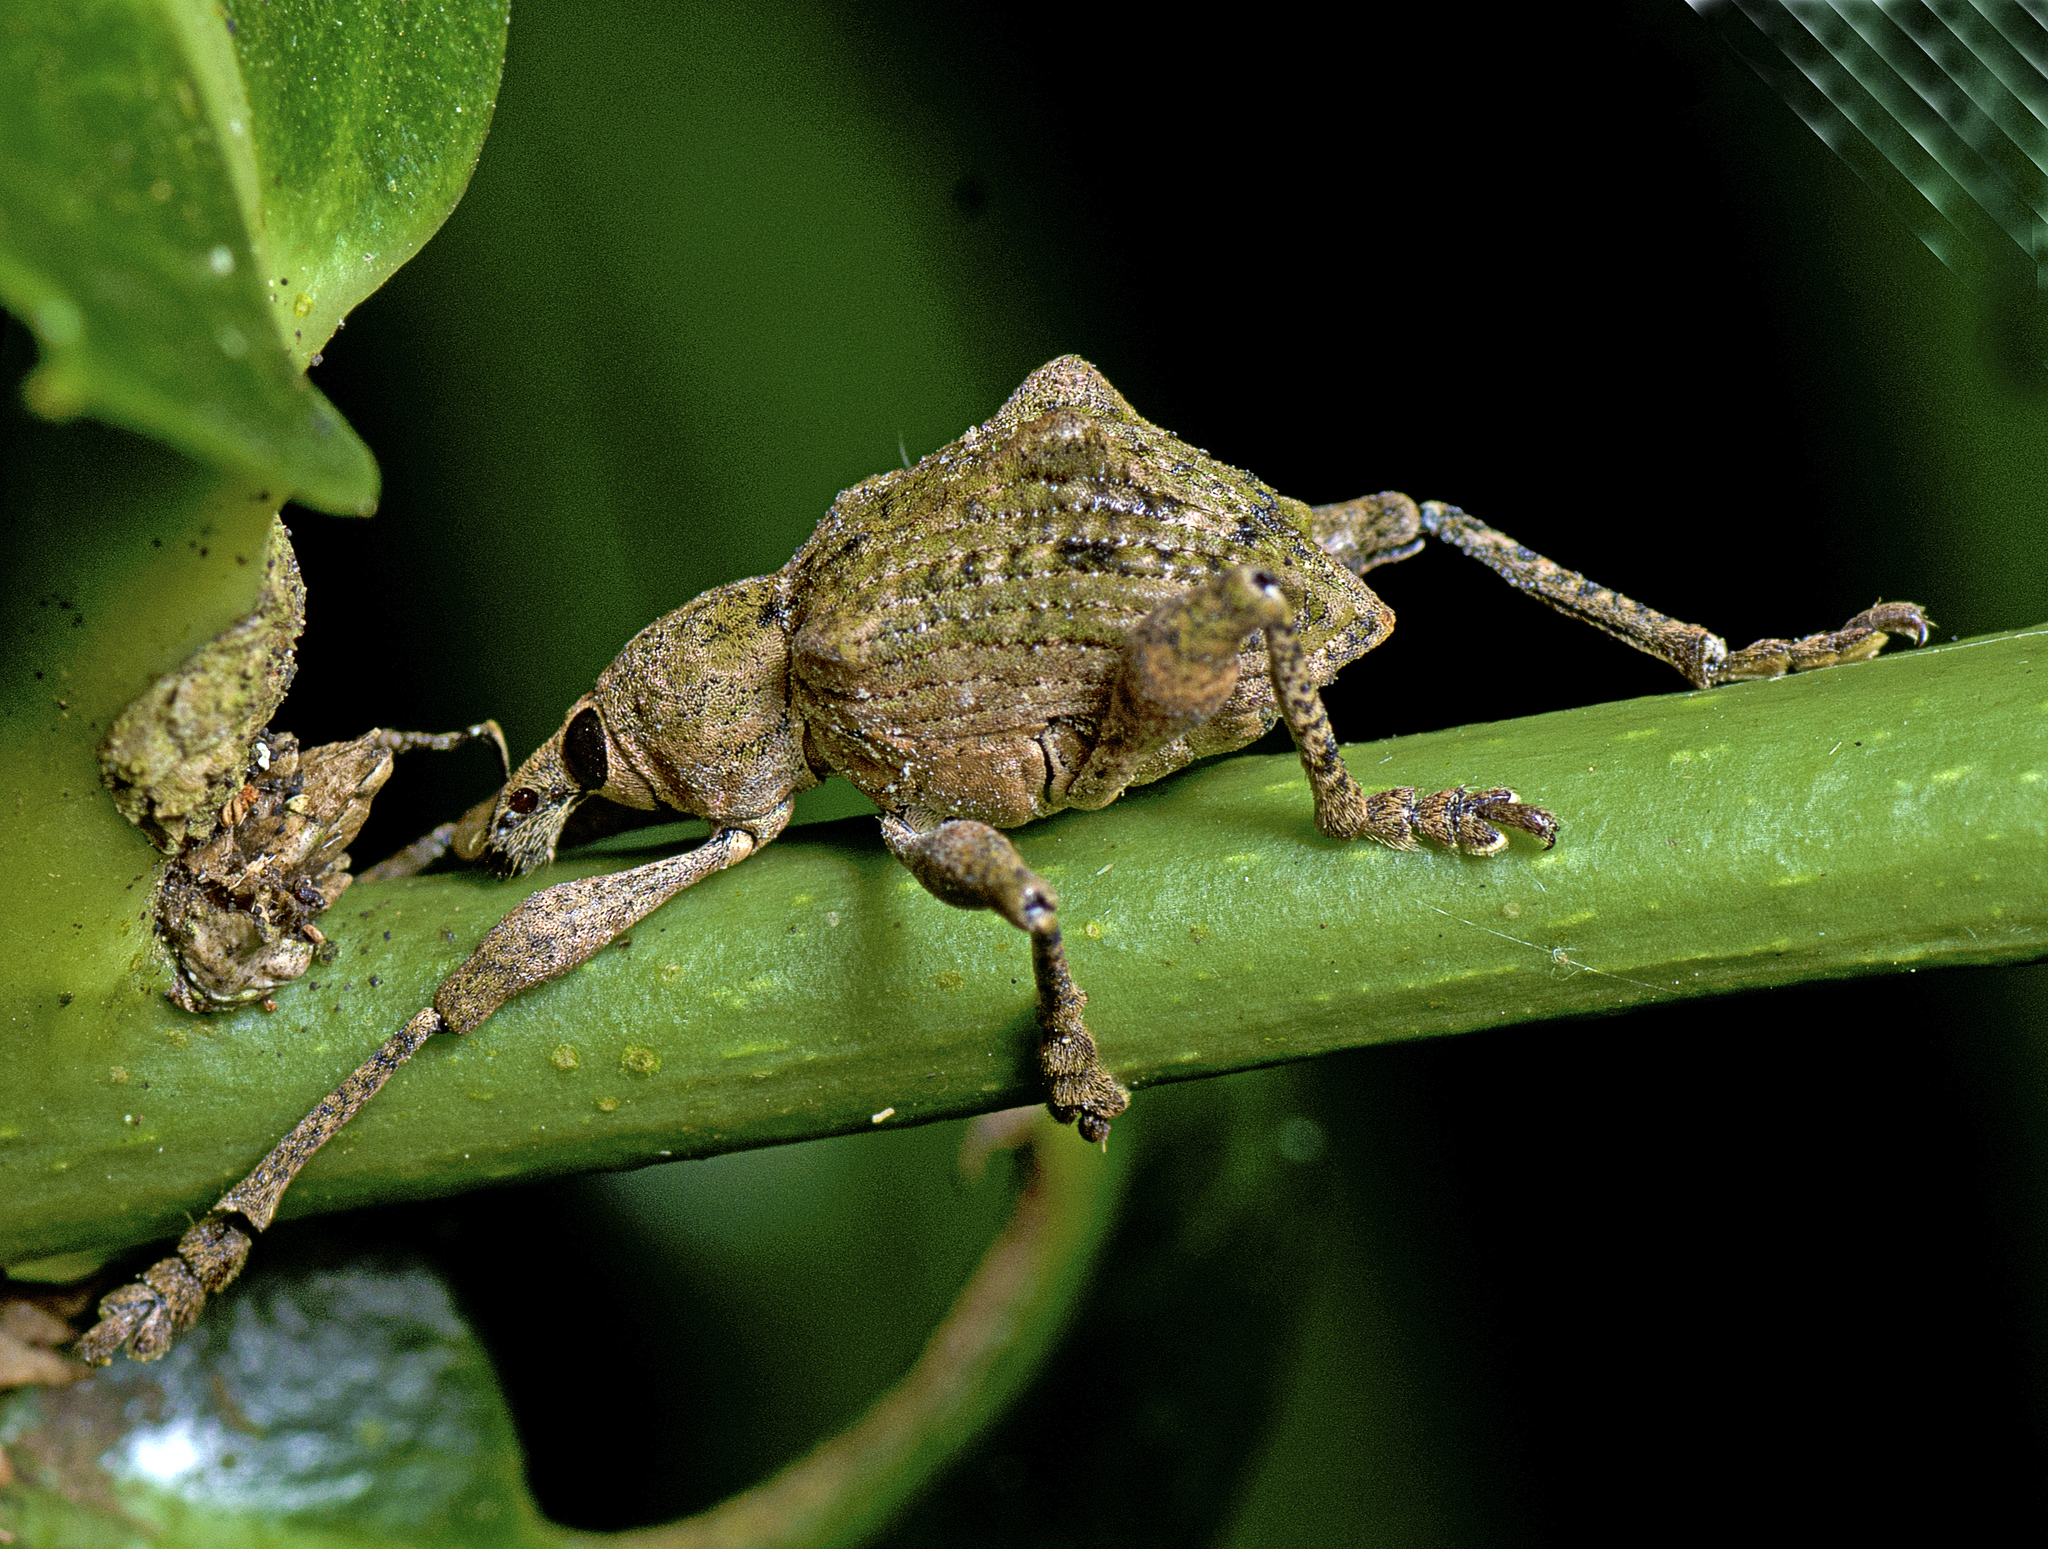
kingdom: Animalia
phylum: Arthropoda
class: Insecta
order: Coleoptera
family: Curculionidae
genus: Eurychirus
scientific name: Eurychirus bituberculatus
